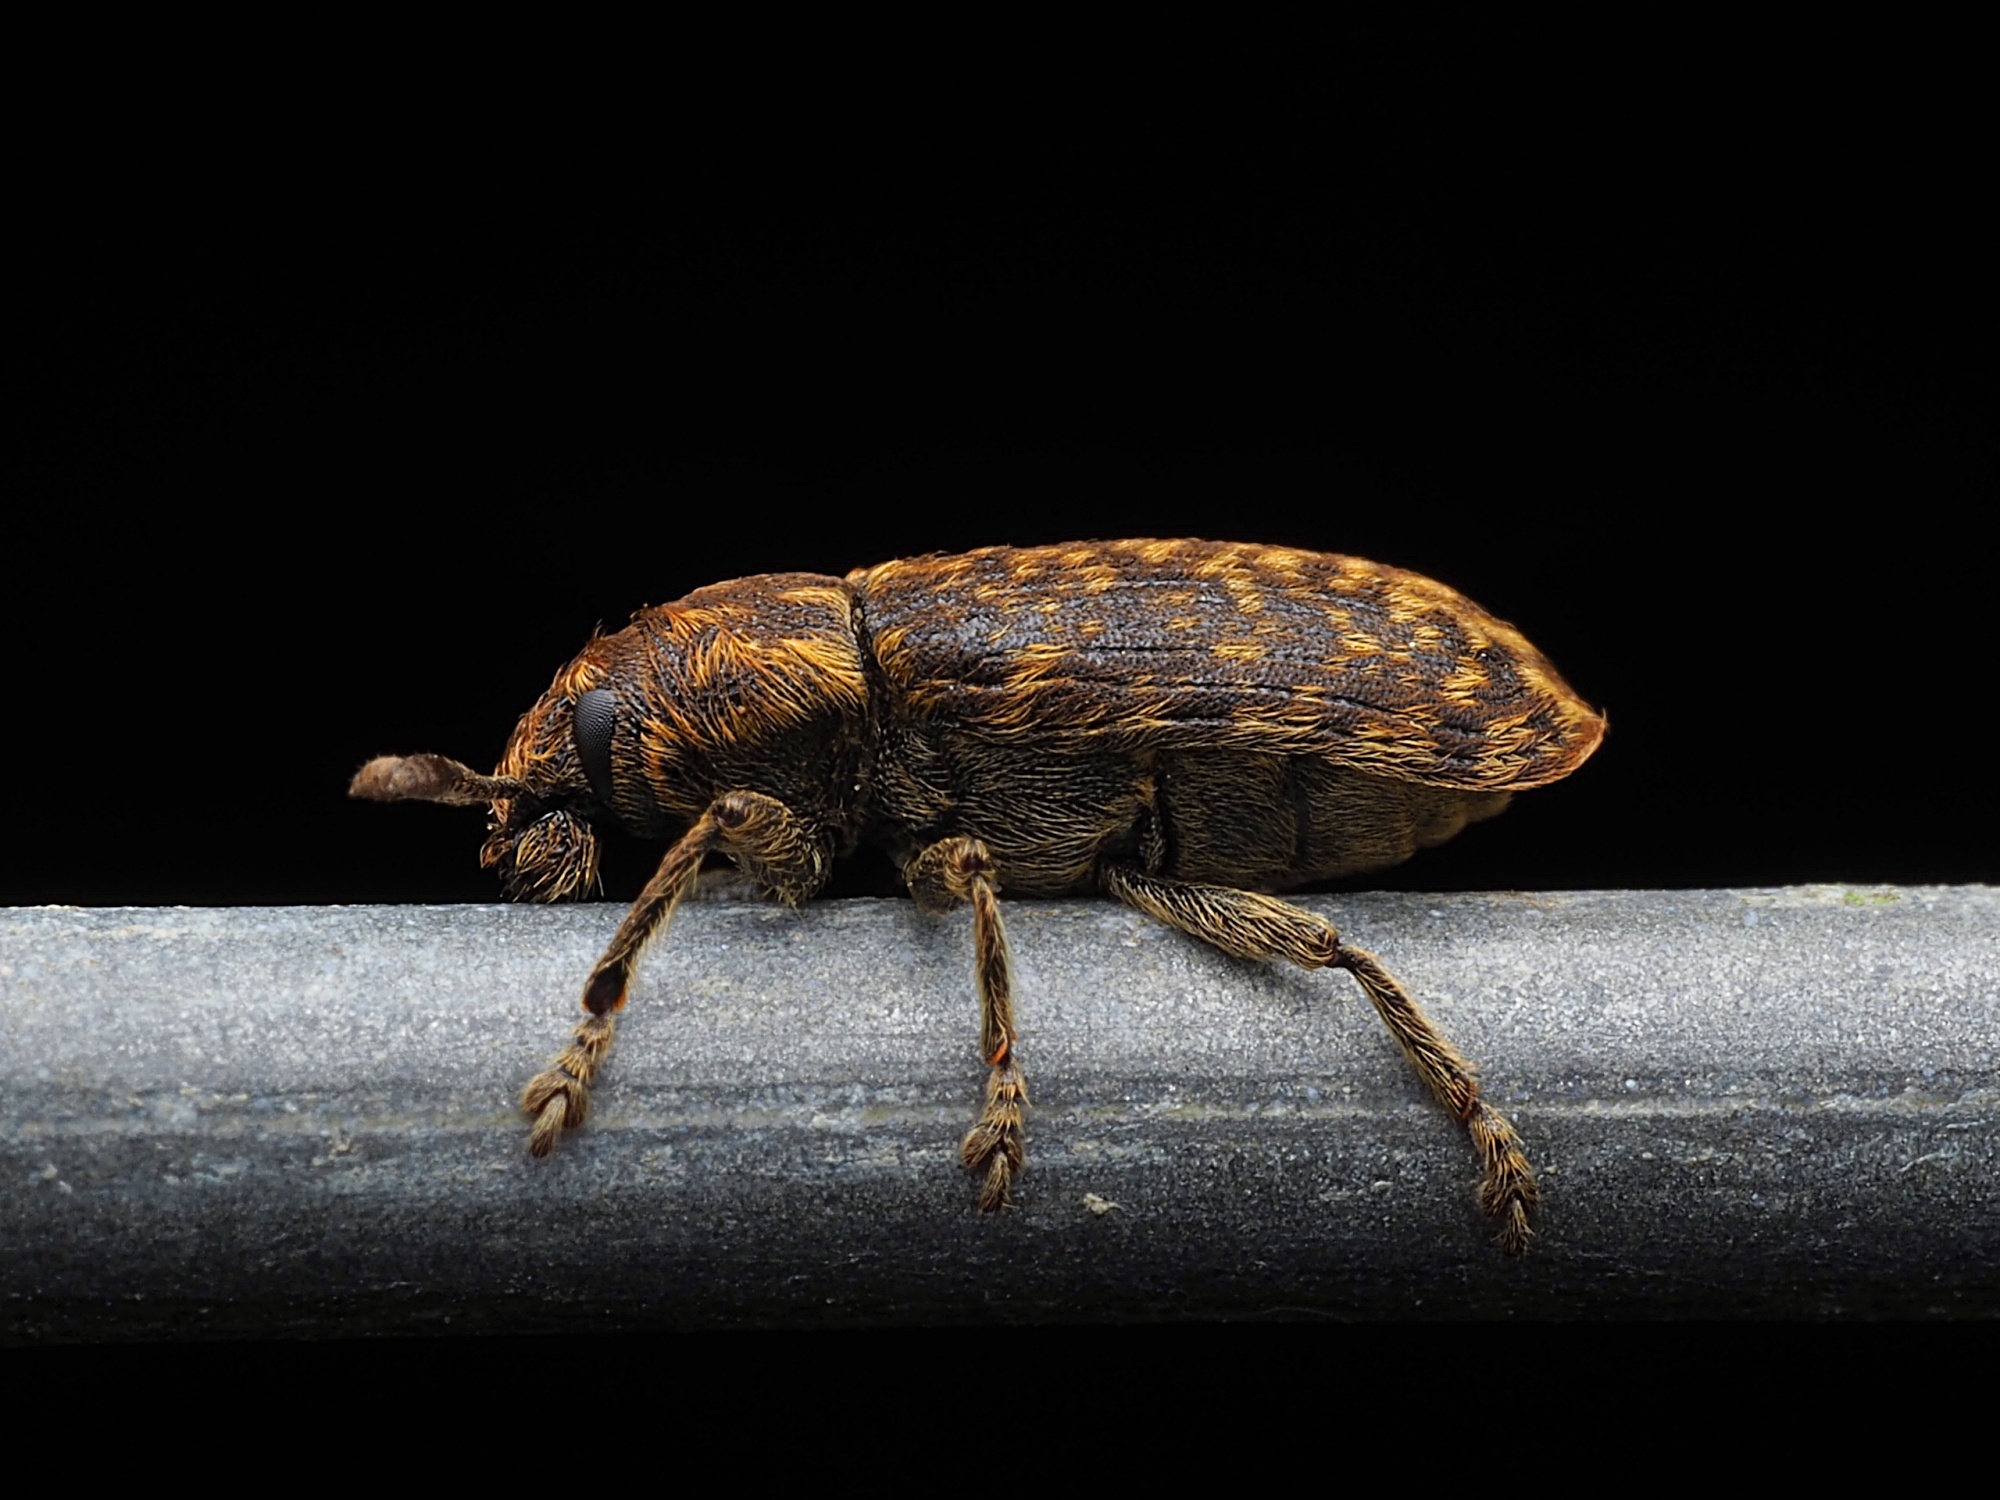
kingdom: Animalia
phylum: Arthropoda
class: Insecta
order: Coleoptera
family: Curculionidae
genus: Rhinocyllus
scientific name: Rhinocyllus conicus
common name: Weevil
